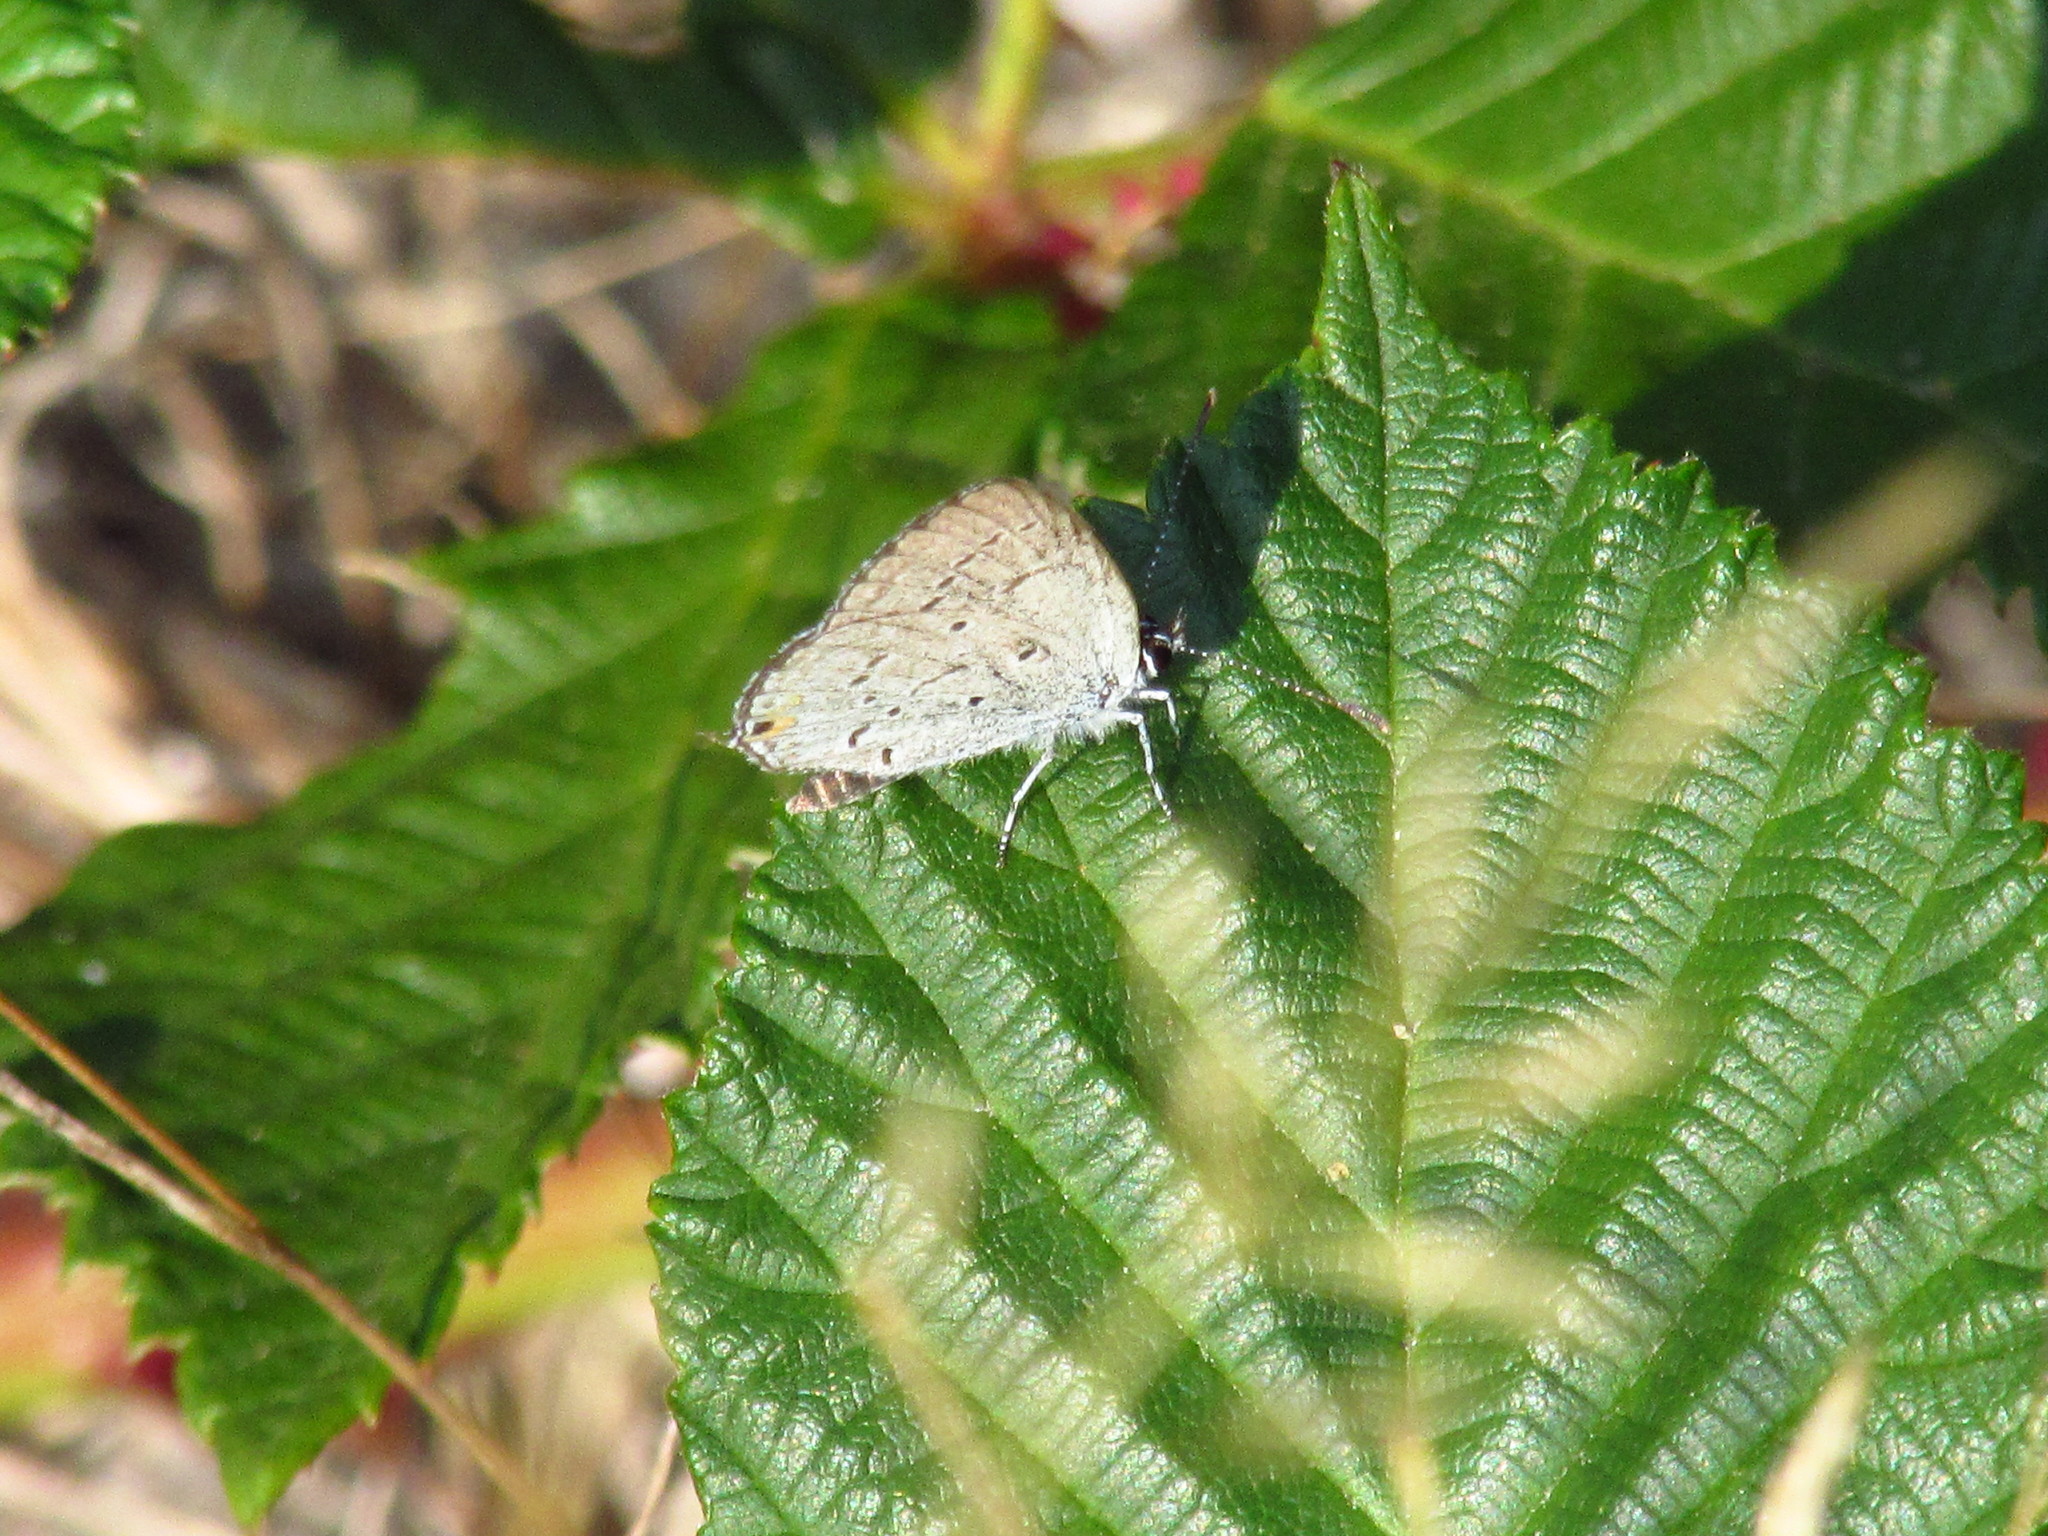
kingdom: Animalia
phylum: Arthropoda
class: Insecta
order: Lepidoptera
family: Lycaenidae
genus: Elkalyce
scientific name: Elkalyce comyntas
